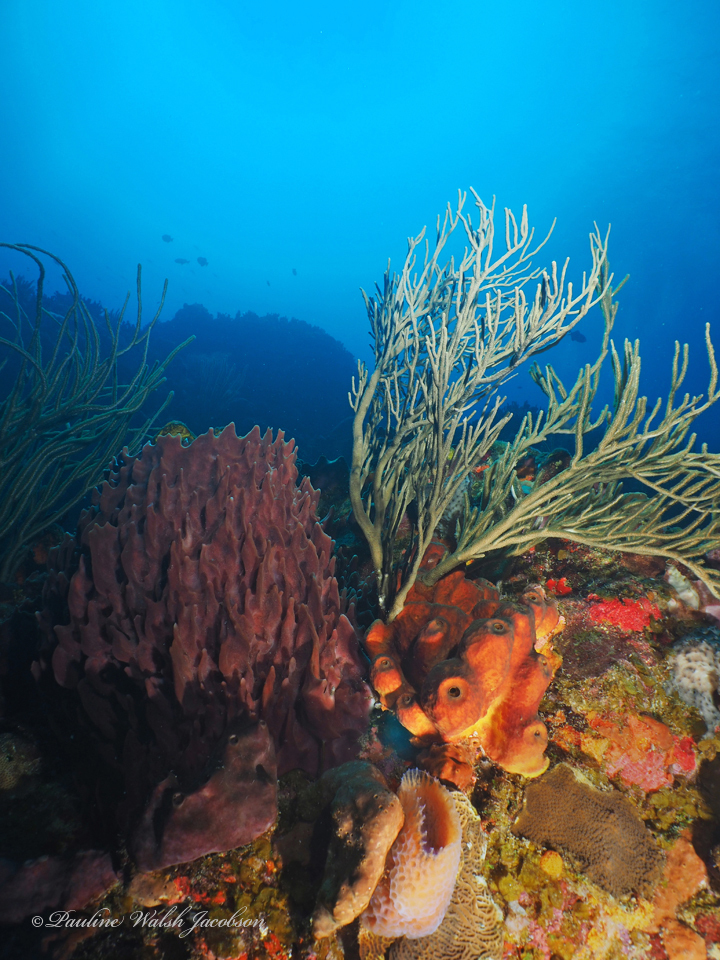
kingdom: Animalia
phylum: Porifera
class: Demospongiae
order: Haplosclerida
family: Petrosiidae
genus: Xestospongia
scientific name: Xestospongia muta
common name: Giant barrel sponge
